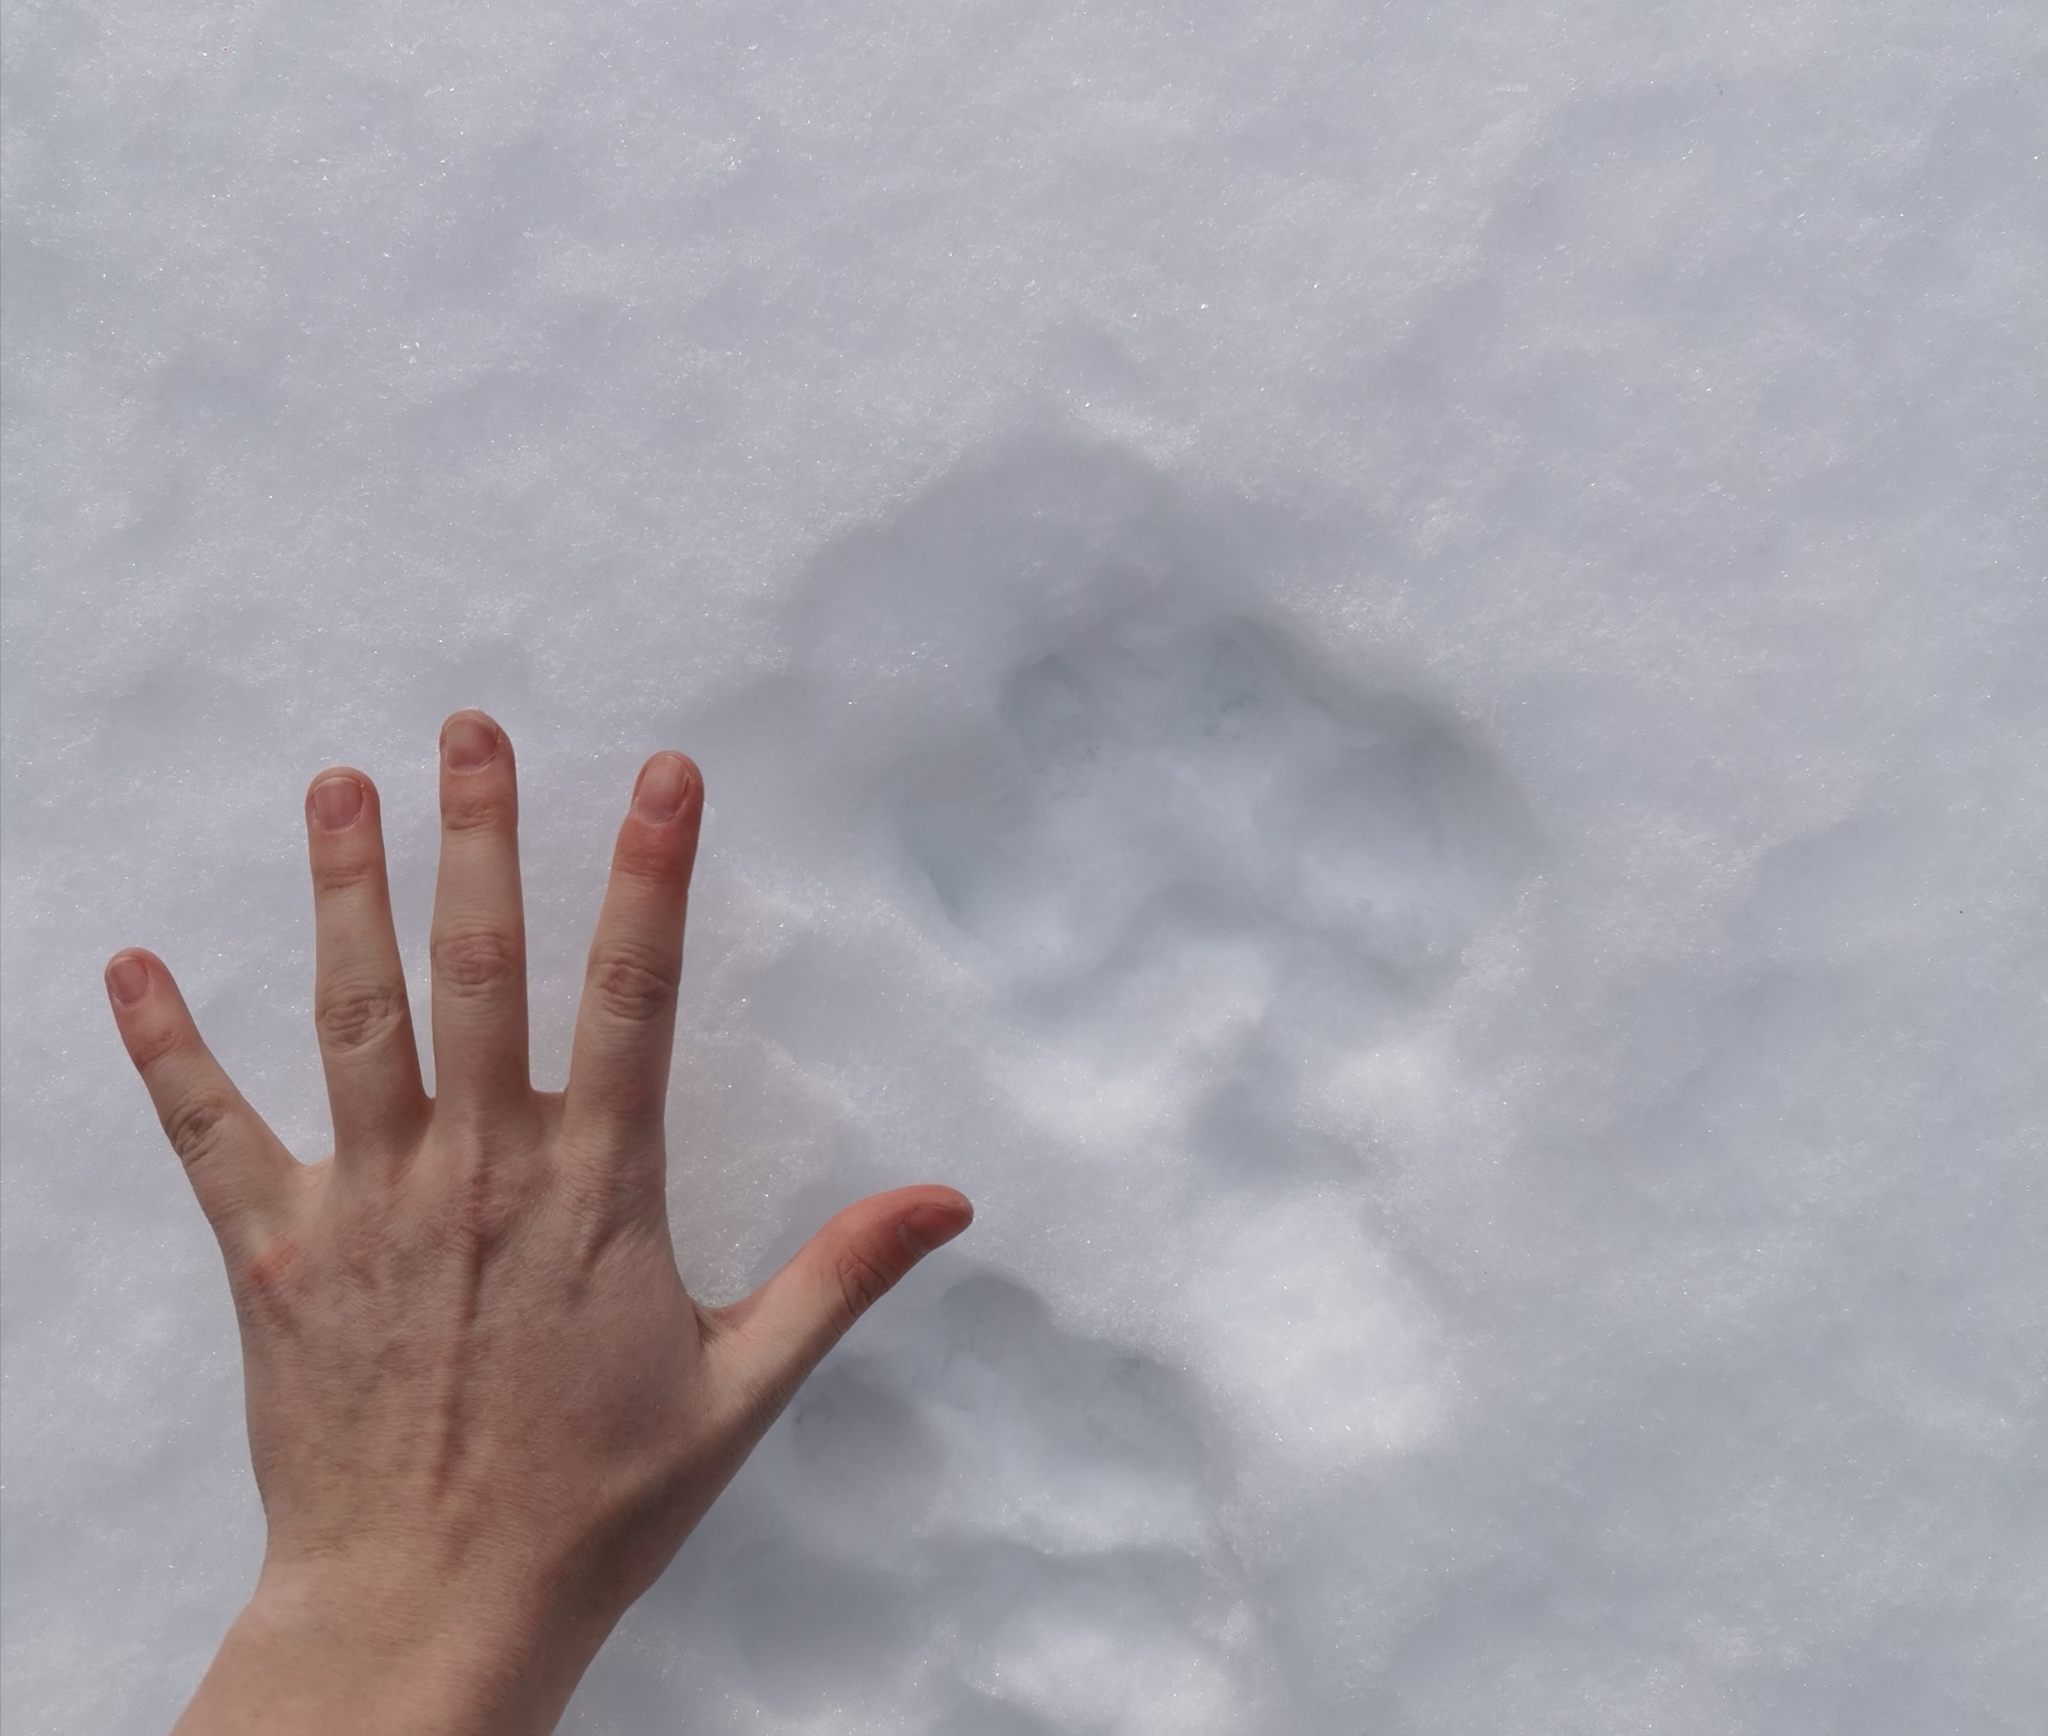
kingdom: Animalia
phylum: Chordata
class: Mammalia
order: Carnivora
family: Felidae
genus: Lynx
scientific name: Lynx lynx
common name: Eurasian lynx
